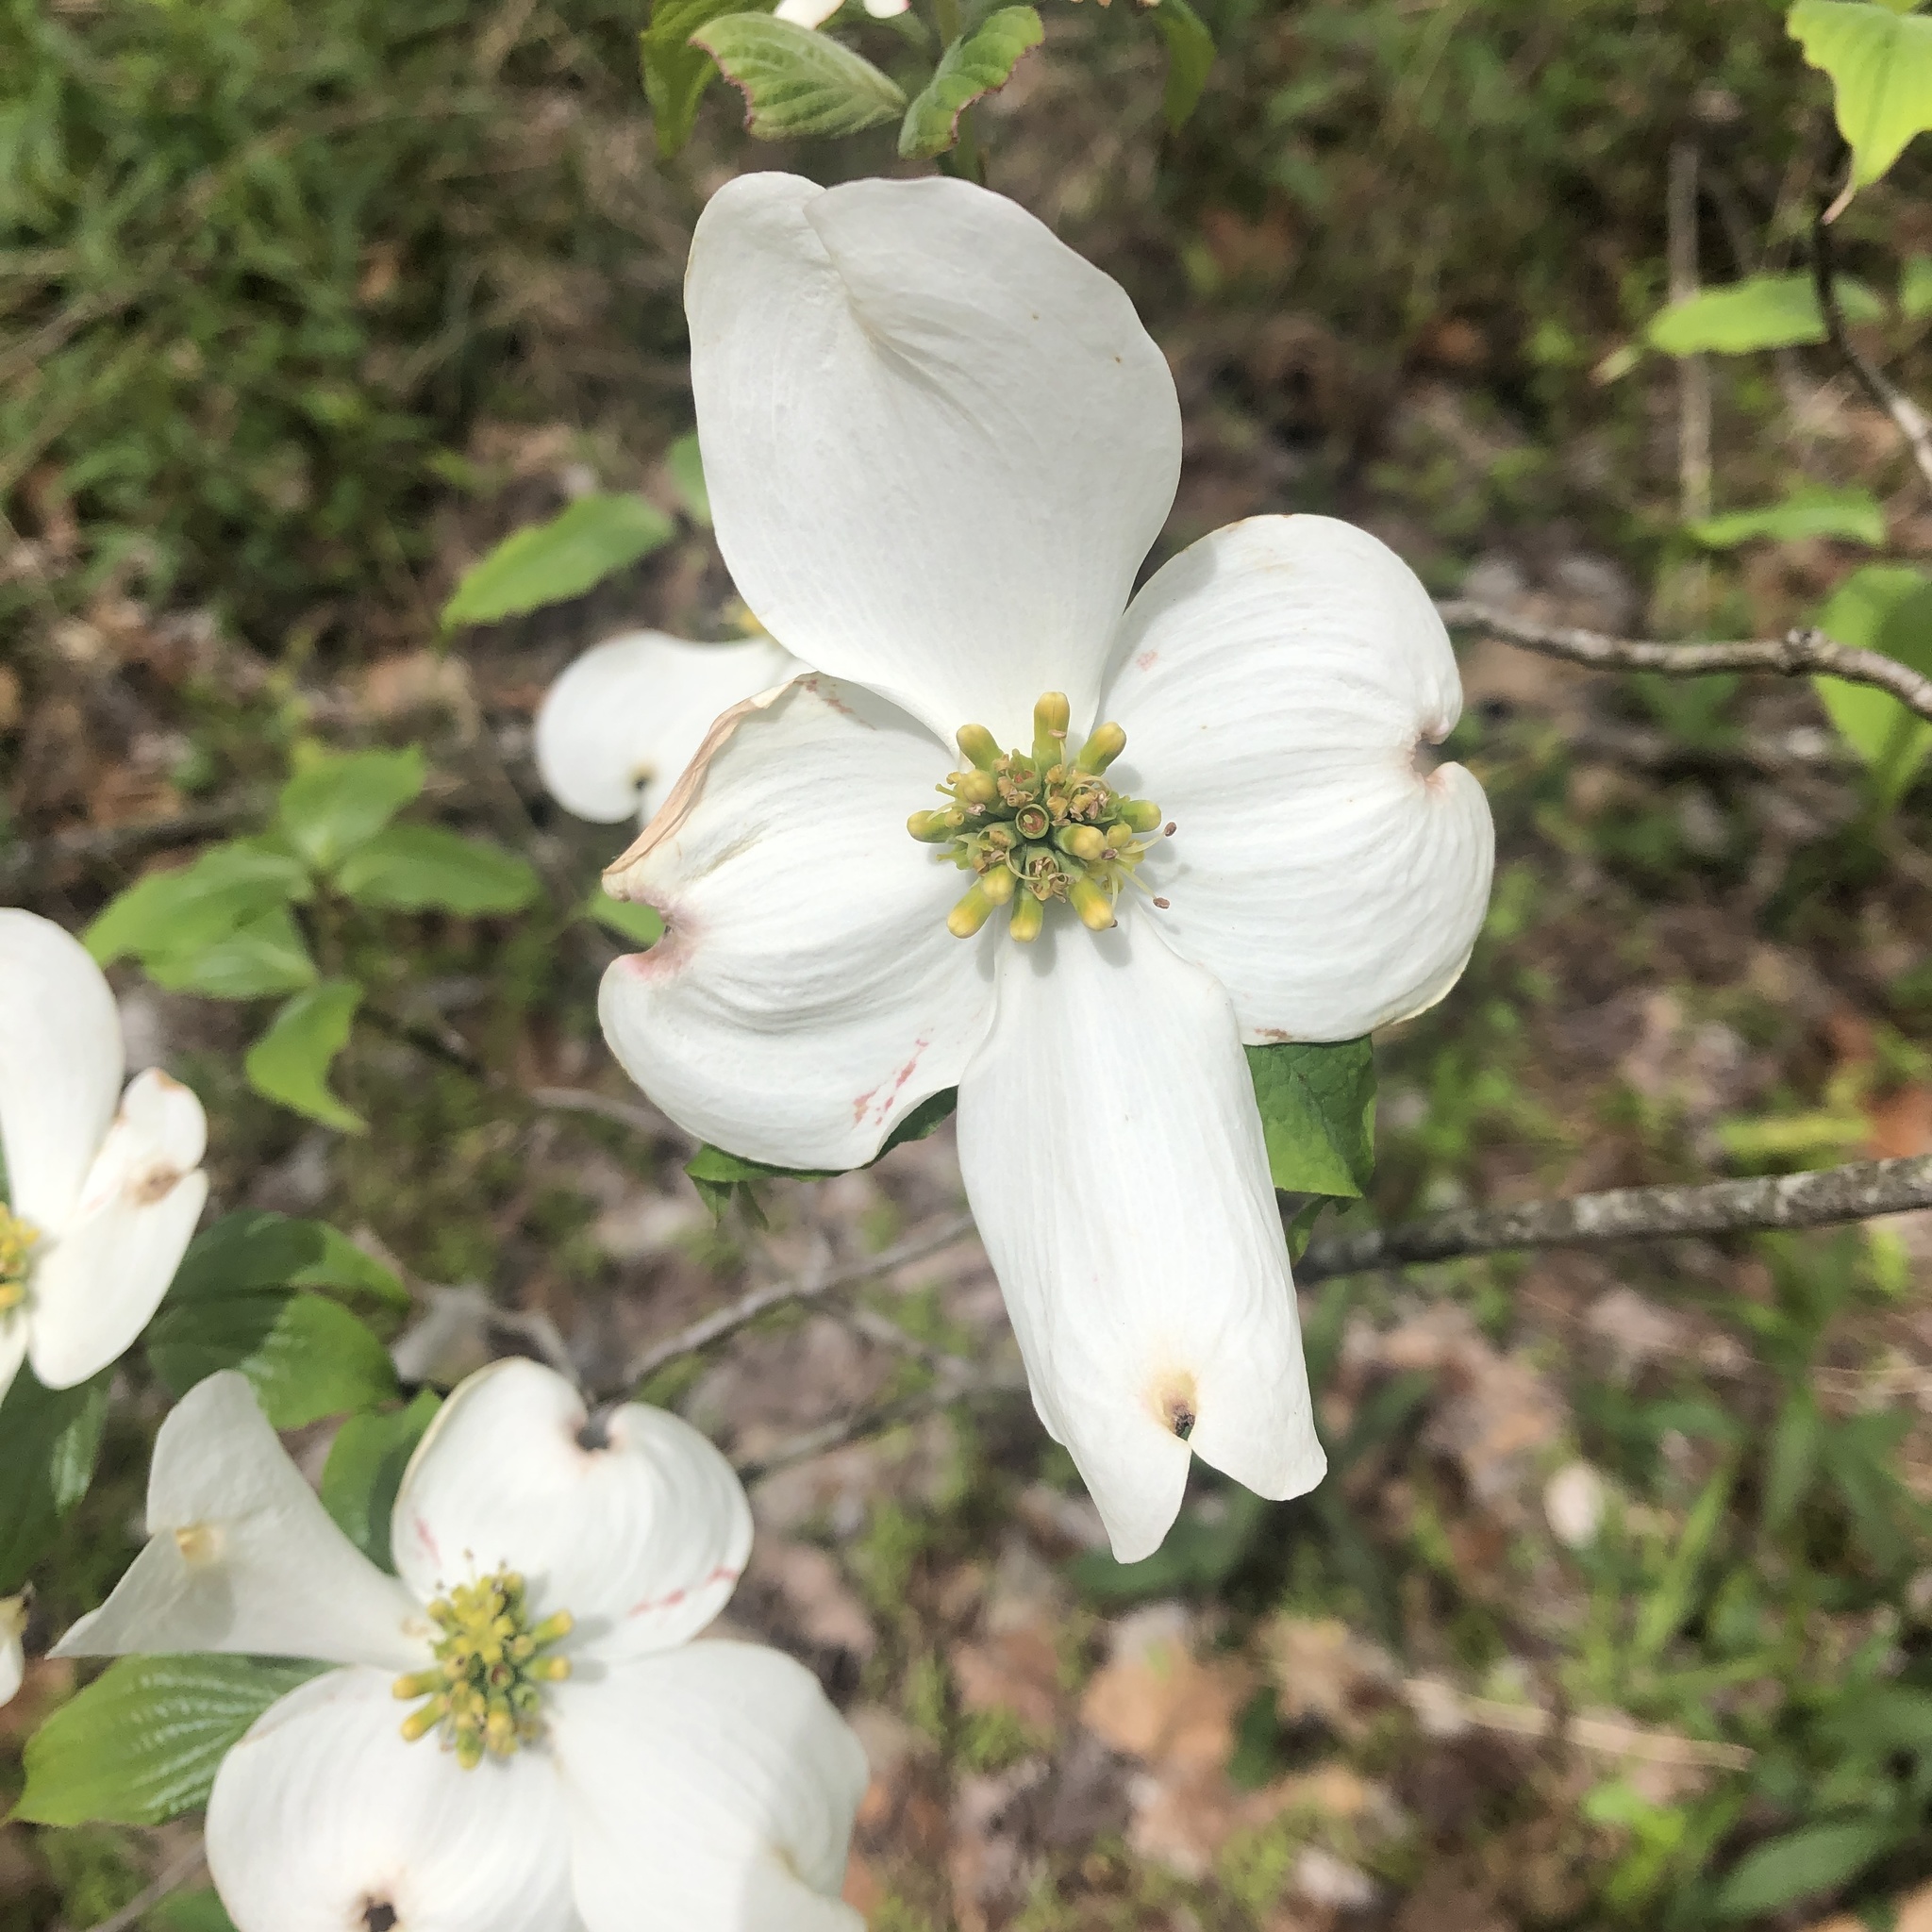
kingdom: Plantae
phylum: Tracheophyta
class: Magnoliopsida
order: Cornales
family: Cornaceae
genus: Cornus
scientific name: Cornus florida
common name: Flowering dogwood
